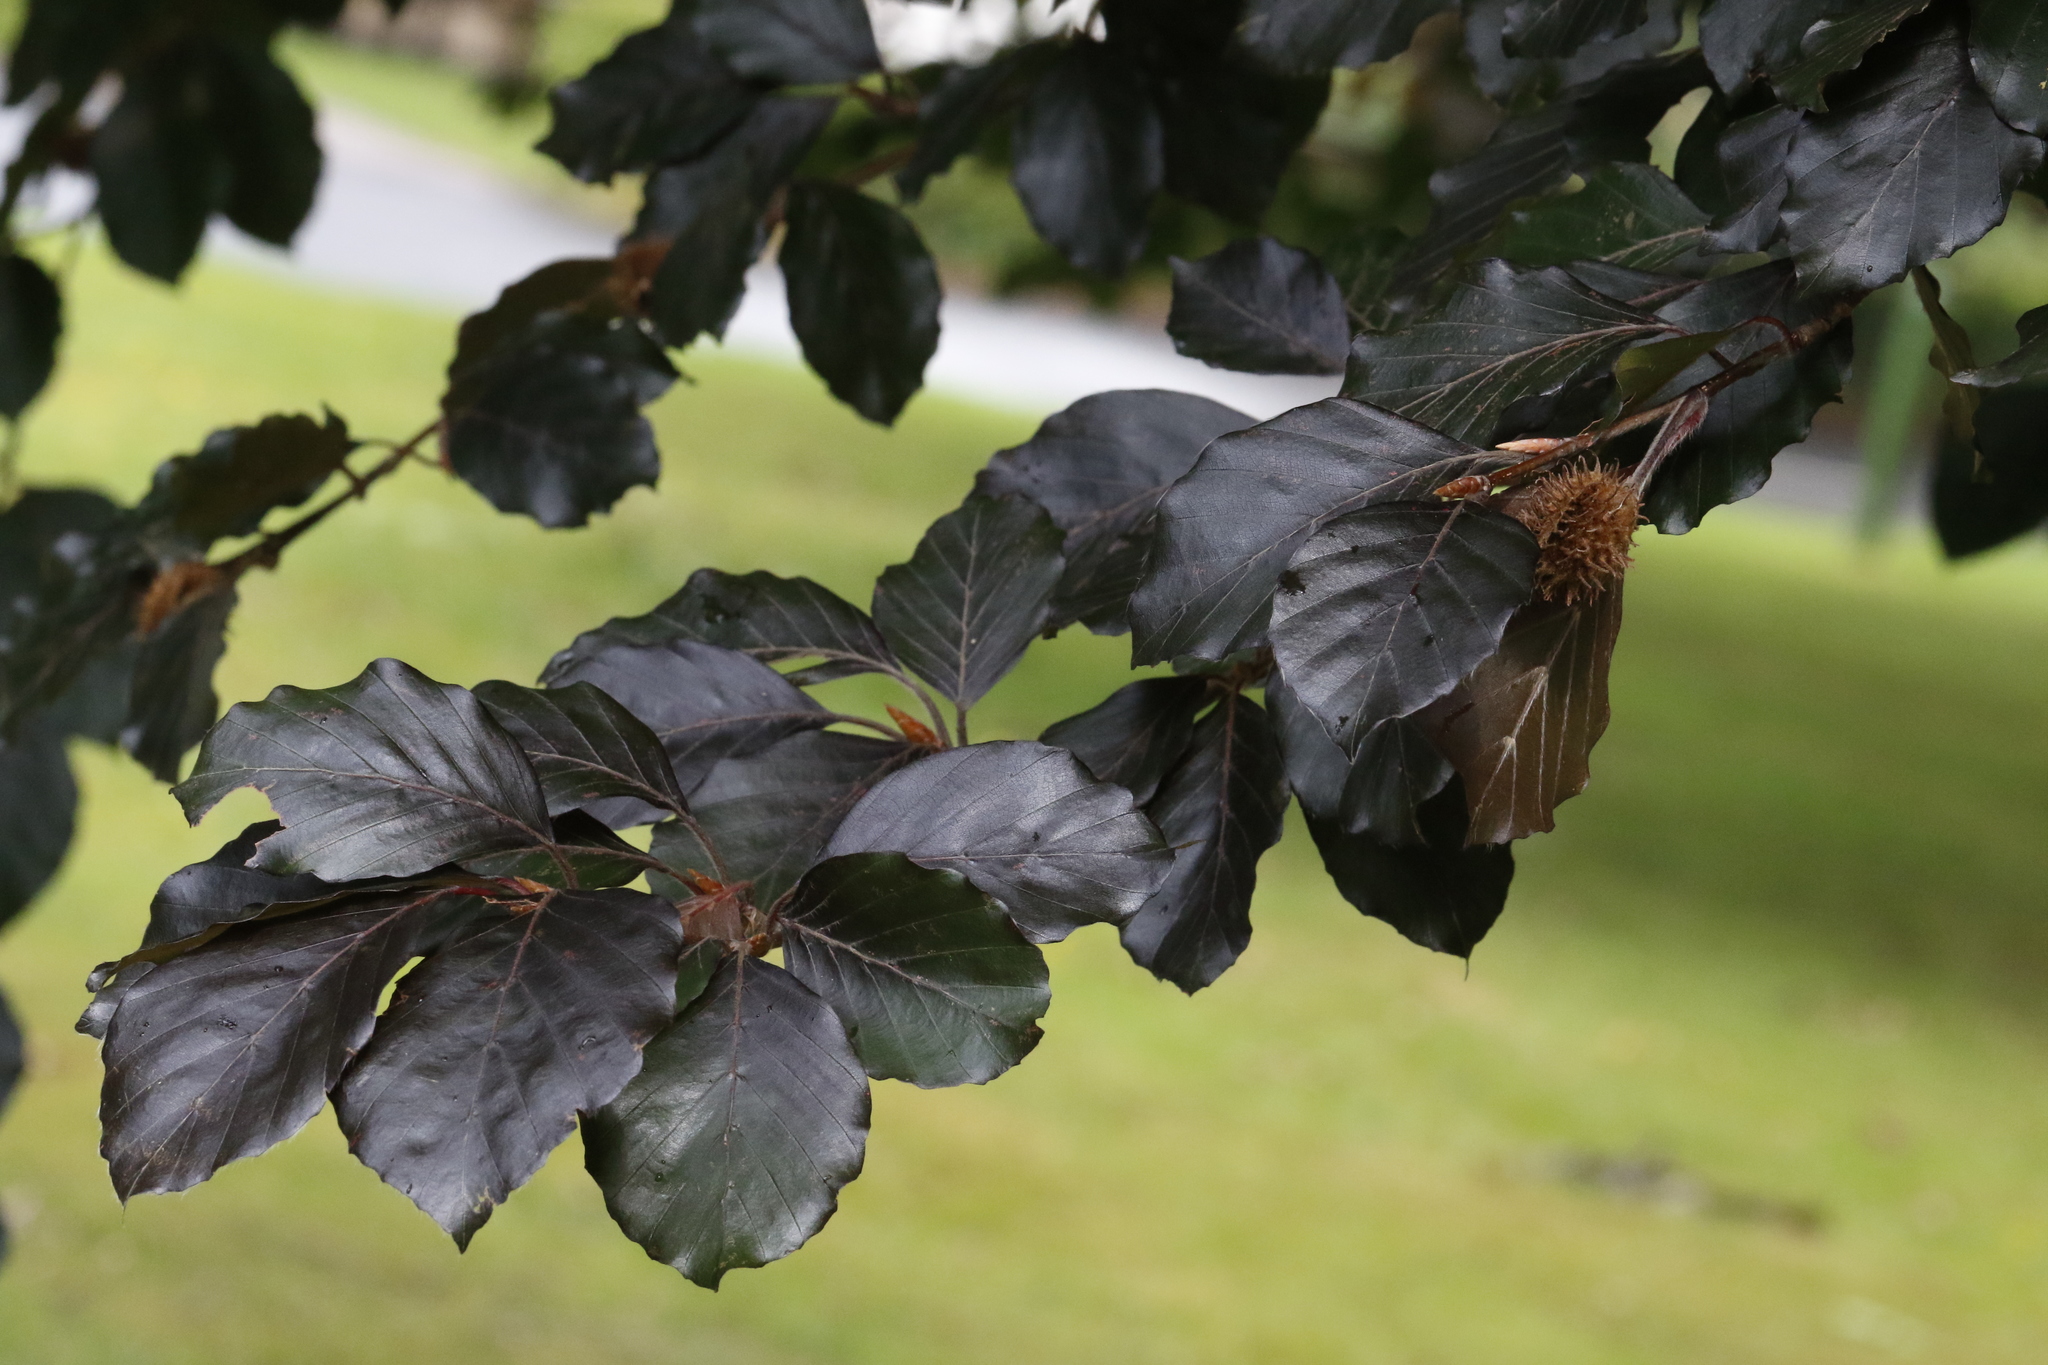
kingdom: Plantae
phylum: Tracheophyta
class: Magnoliopsida
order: Fagales
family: Fagaceae
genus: Fagus
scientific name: Fagus sylvatica
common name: Beech
